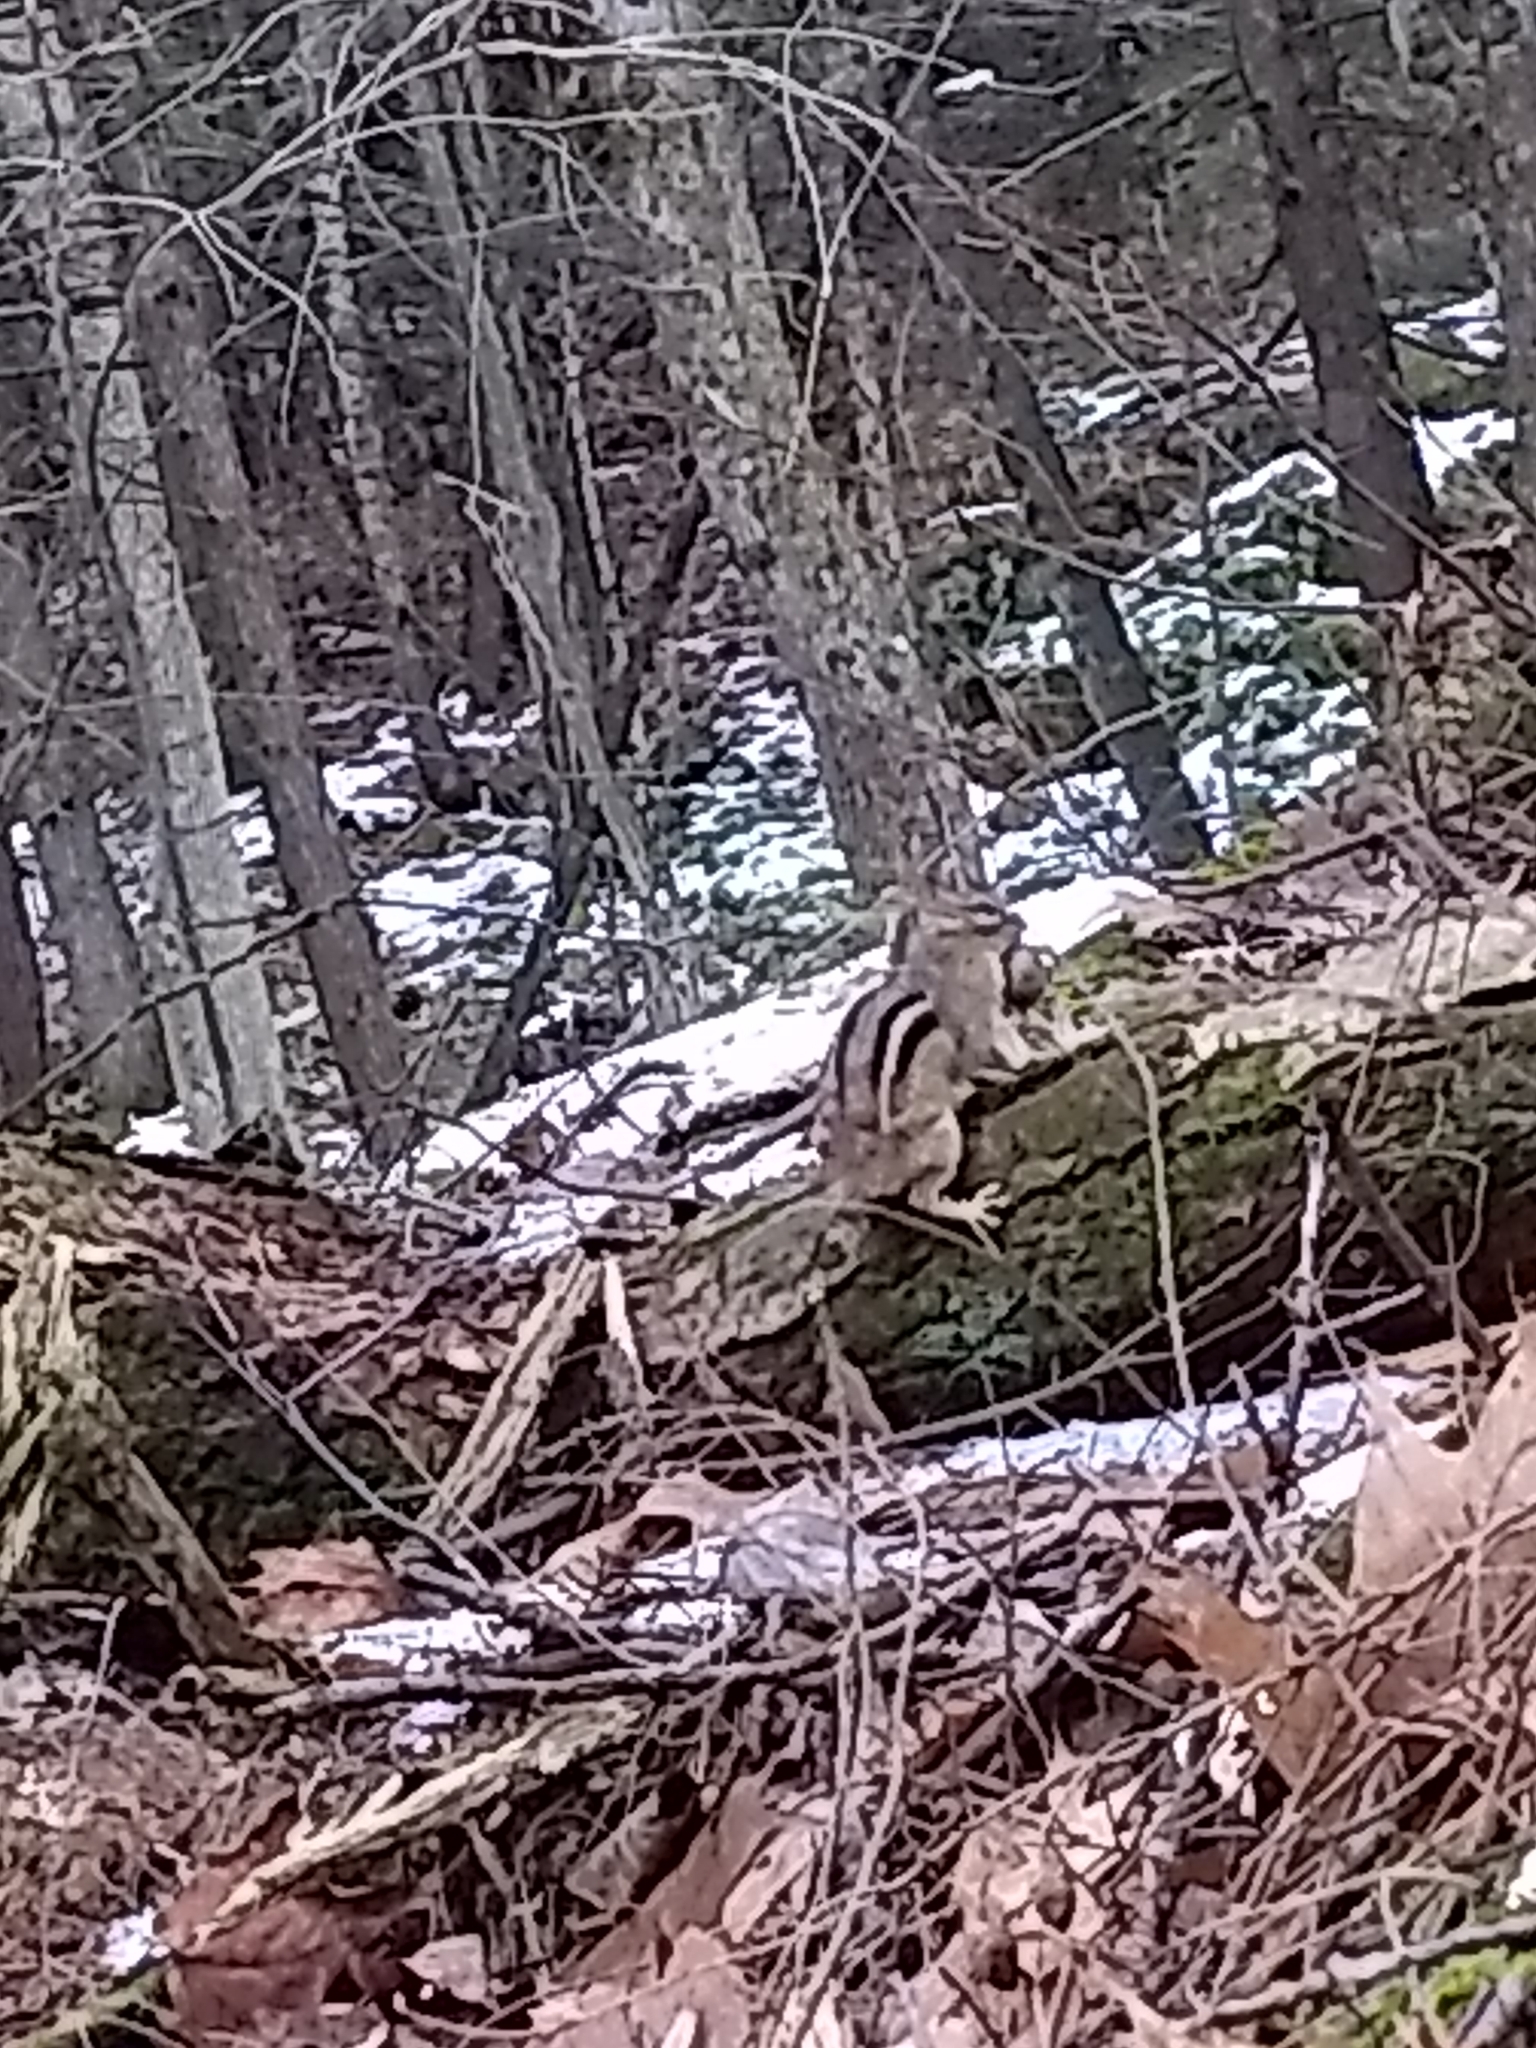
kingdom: Animalia
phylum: Chordata
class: Mammalia
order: Rodentia
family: Sciuridae
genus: Tamias
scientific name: Tamias striatus
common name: Eastern chipmunk
